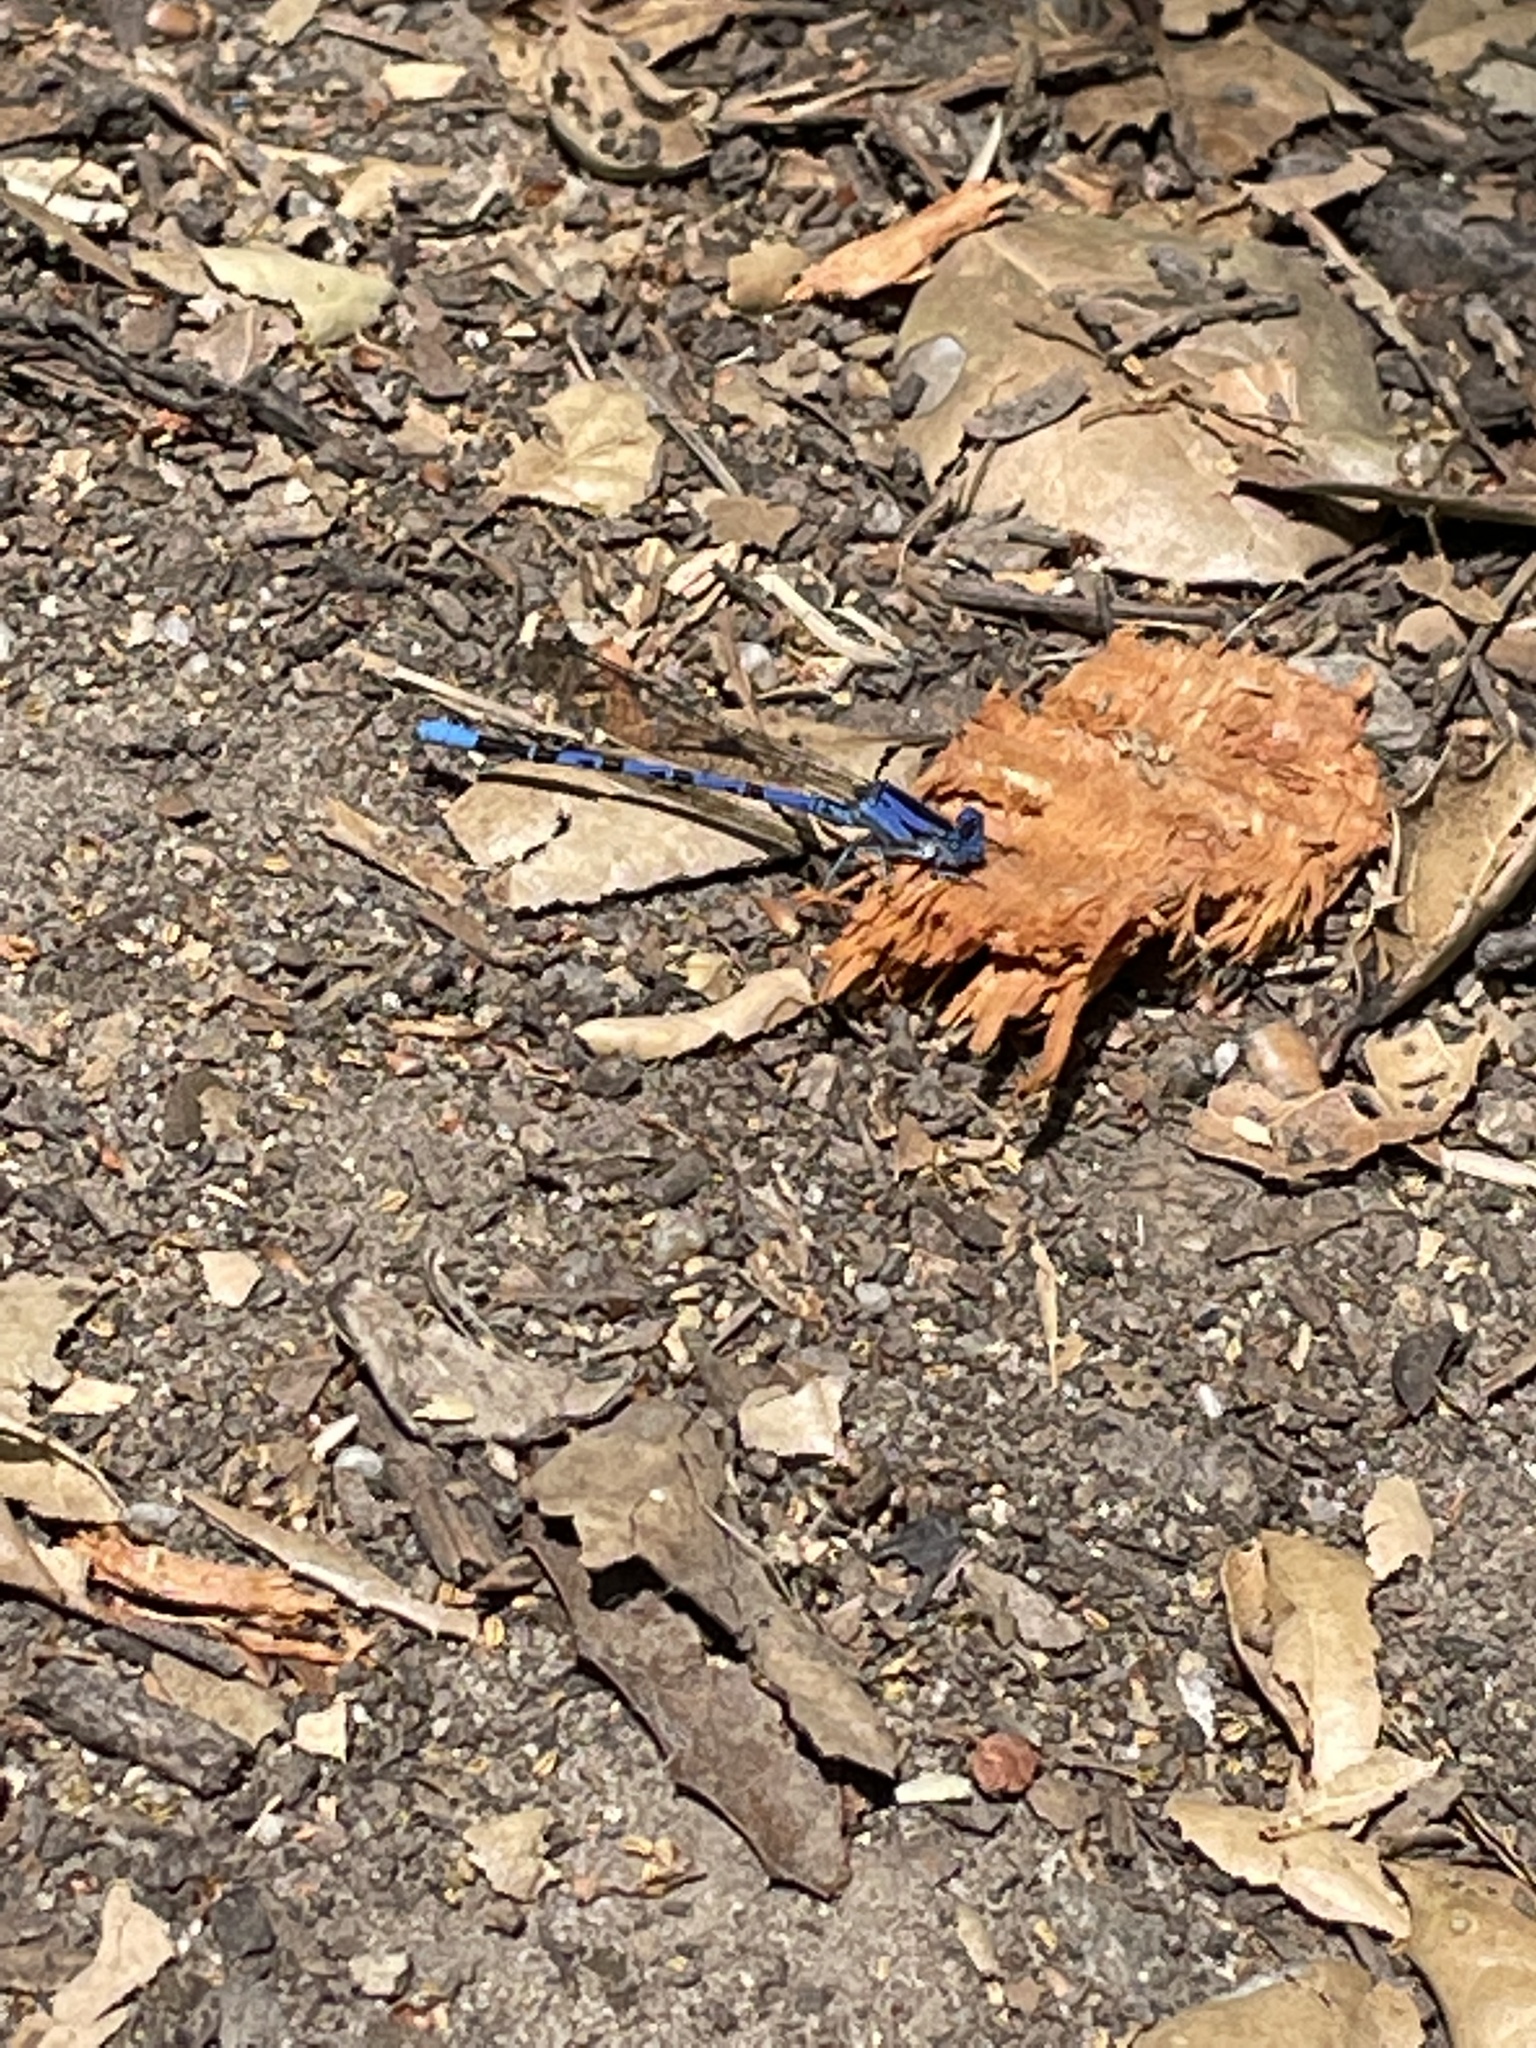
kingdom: Animalia
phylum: Arthropoda
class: Insecta
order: Odonata
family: Coenagrionidae
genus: Argia
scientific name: Argia vivida
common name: Vivid dancer
